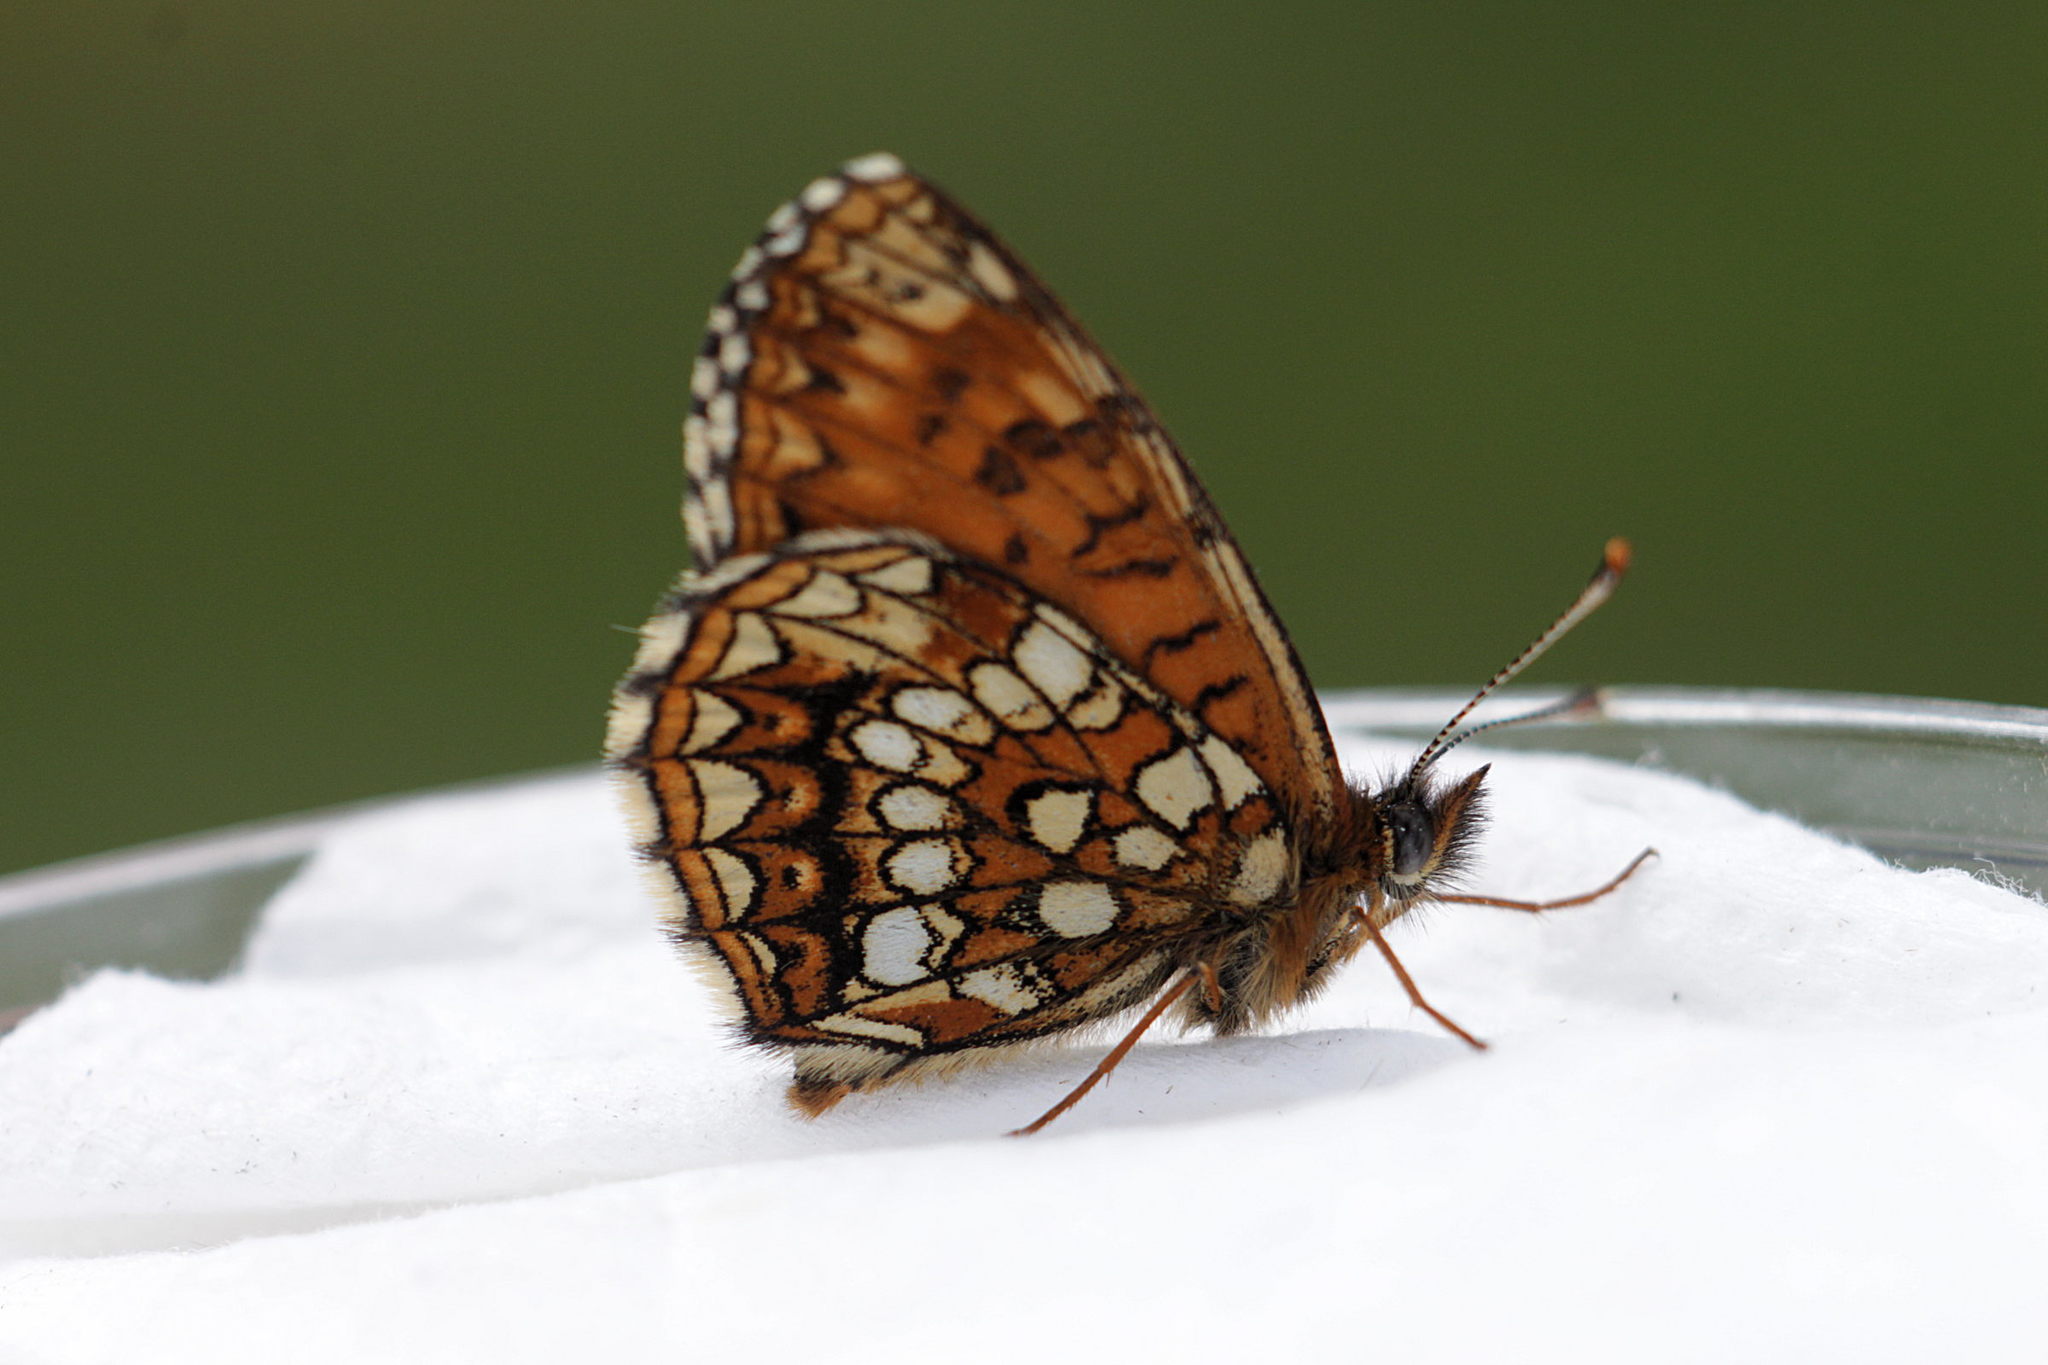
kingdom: Animalia
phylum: Arthropoda
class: Insecta
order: Lepidoptera
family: Nymphalidae
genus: Melitaea
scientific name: Melitaea diamina
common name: False heath fritillary
